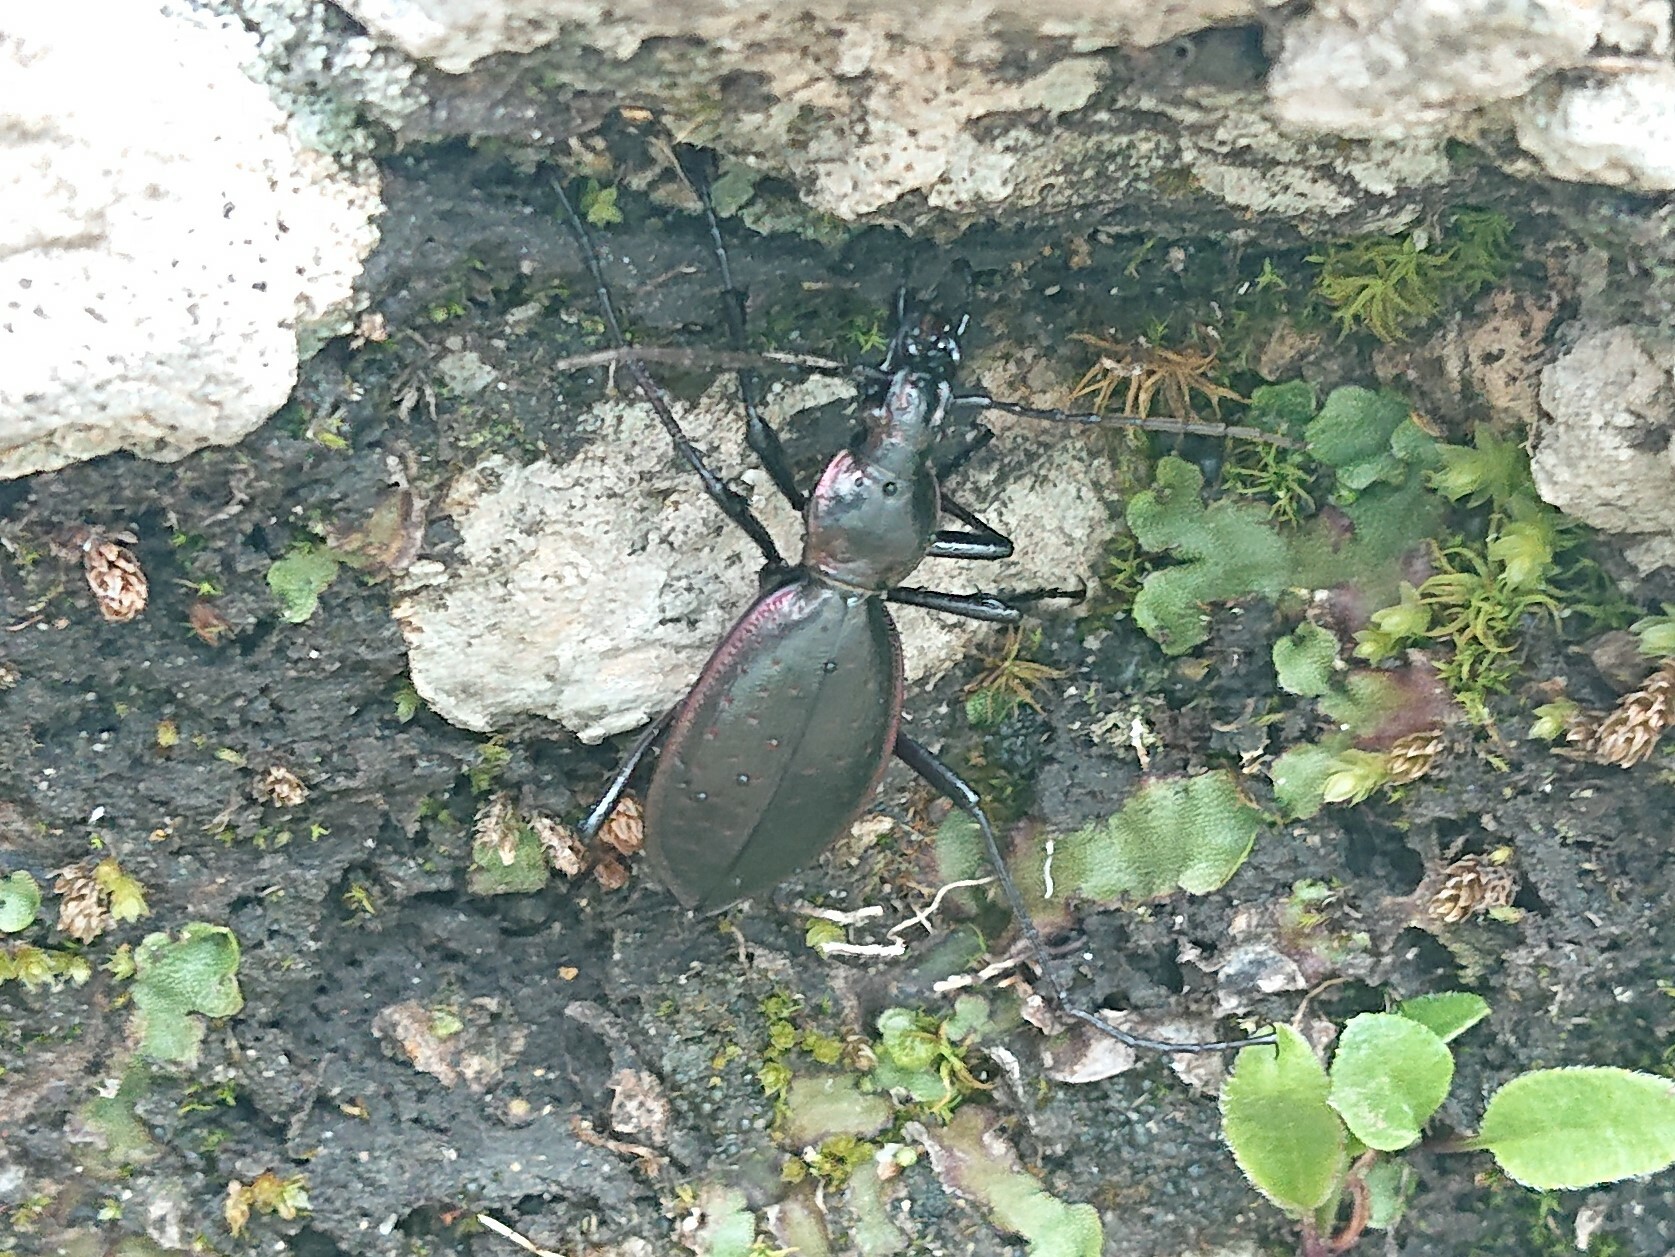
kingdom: Animalia
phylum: Arthropoda
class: Insecta
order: Coleoptera
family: Carabidae
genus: Carabus
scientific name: Carabus creutzeri
